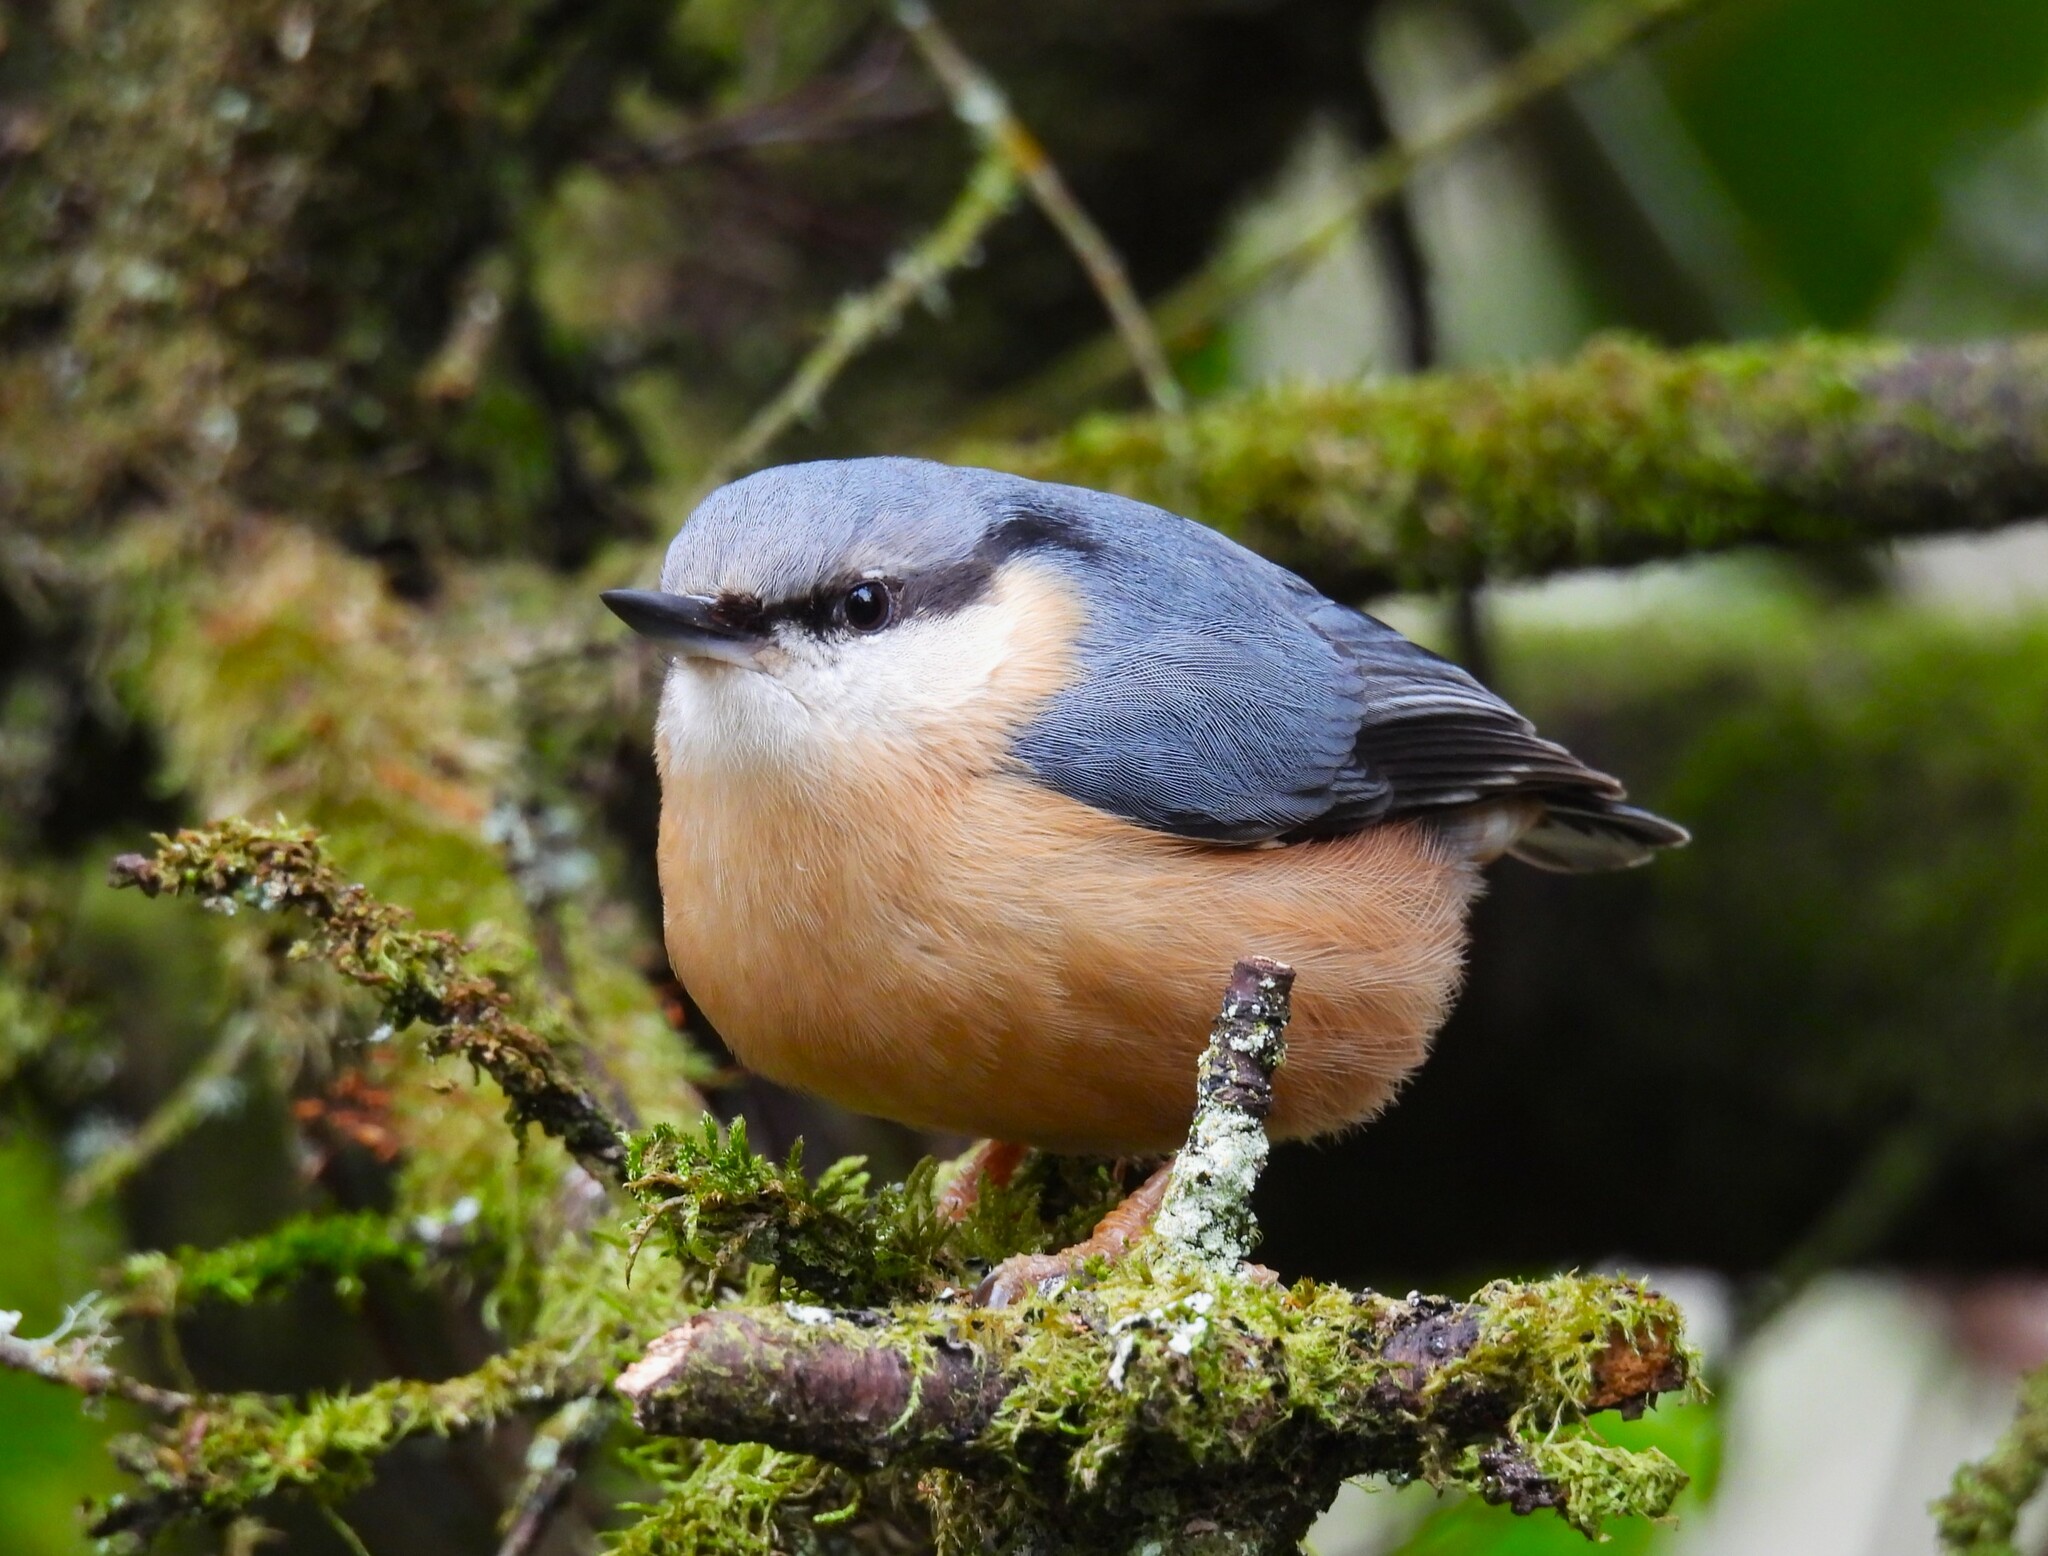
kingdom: Animalia
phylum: Chordata
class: Aves
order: Passeriformes
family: Sittidae
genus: Sitta
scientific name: Sitta europaea
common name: Eurasian nuthatch
